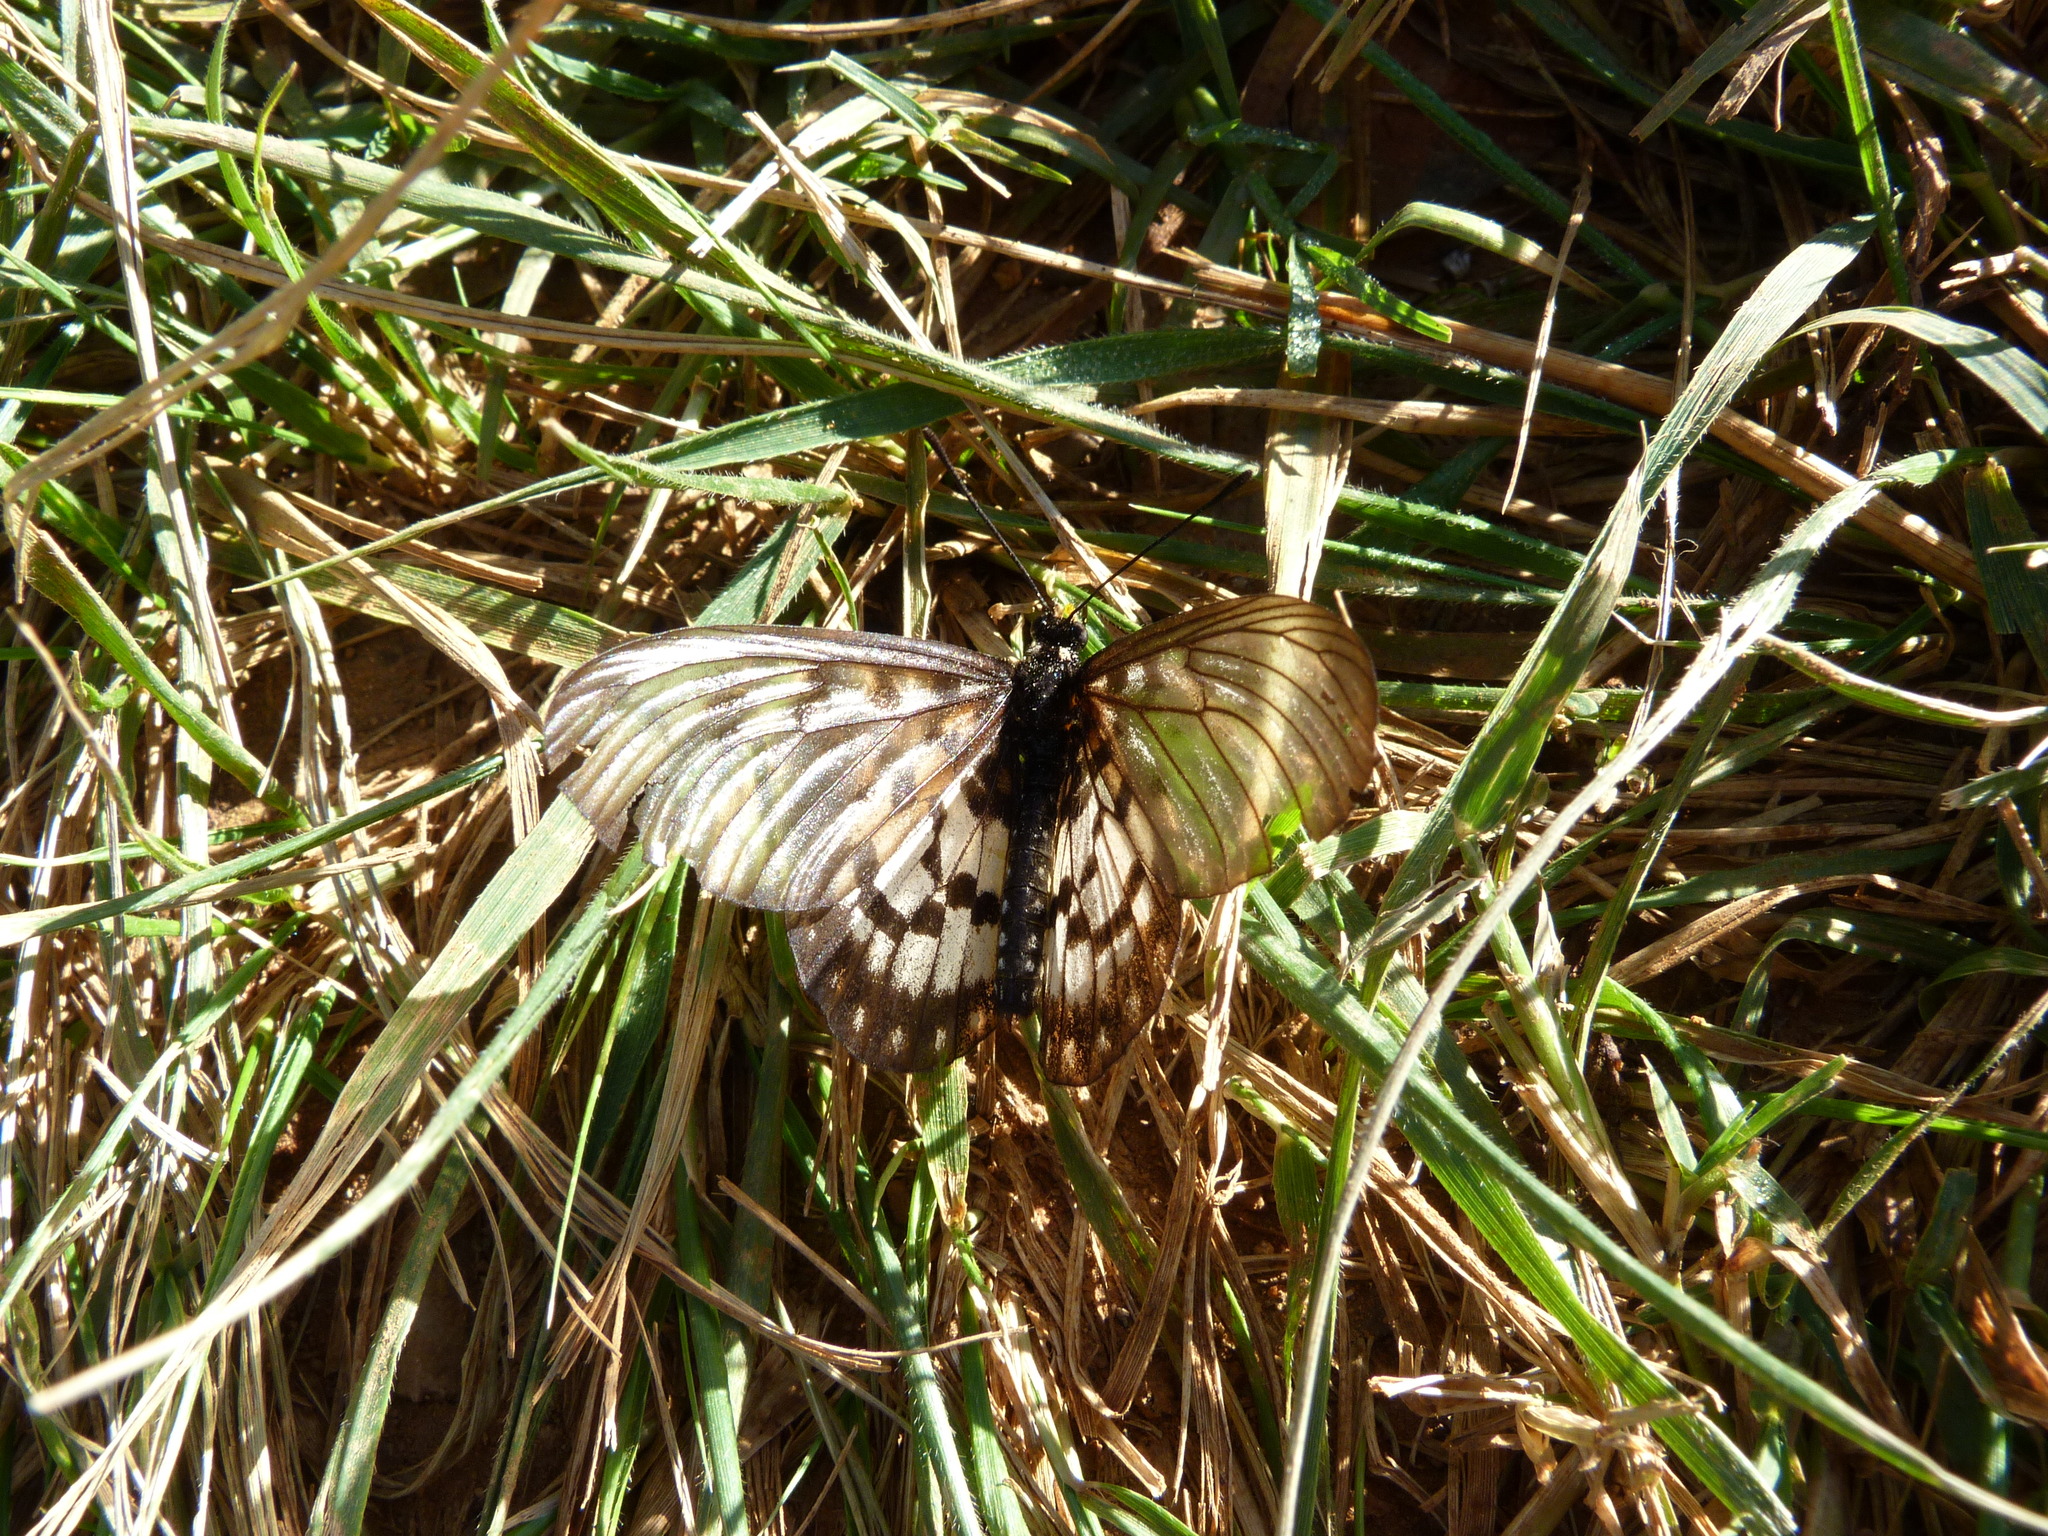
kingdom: Animalia
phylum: Arthropoda
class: Insecta
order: Lepidoptera
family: Nymphalidae
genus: Acraea
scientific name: Acraea andromacha
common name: Glasswing
